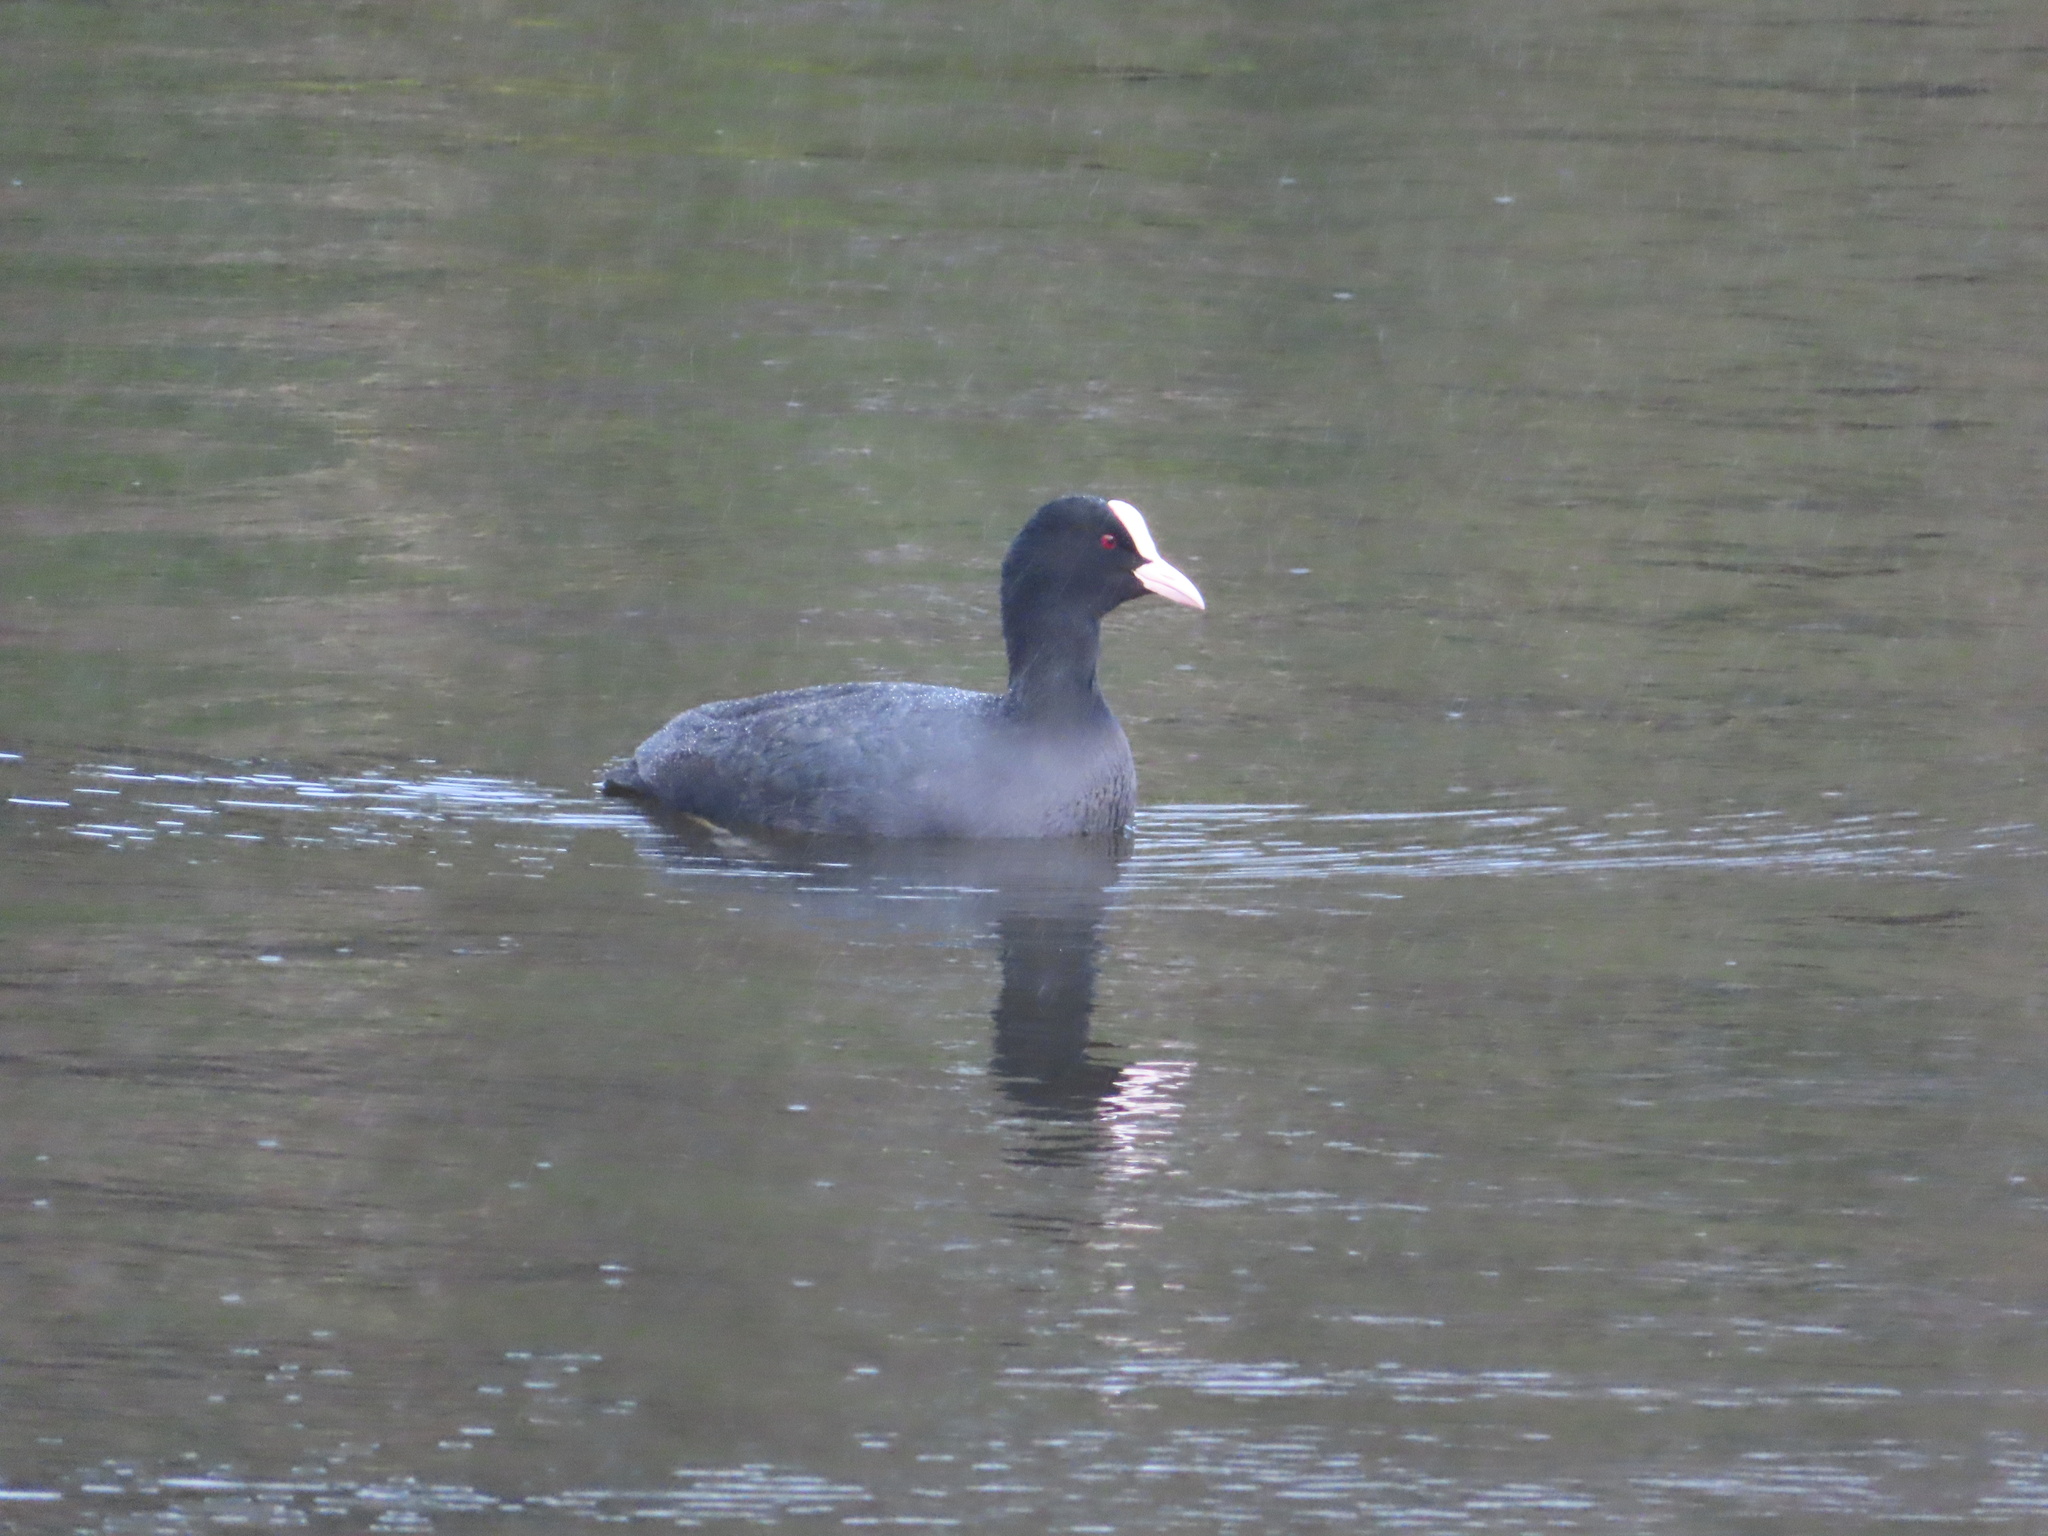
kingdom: Animalia
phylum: Chordata
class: Aves
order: Gruiformes
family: Rallidae
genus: Fulica
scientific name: Fulica atra
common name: Eurasian coot
